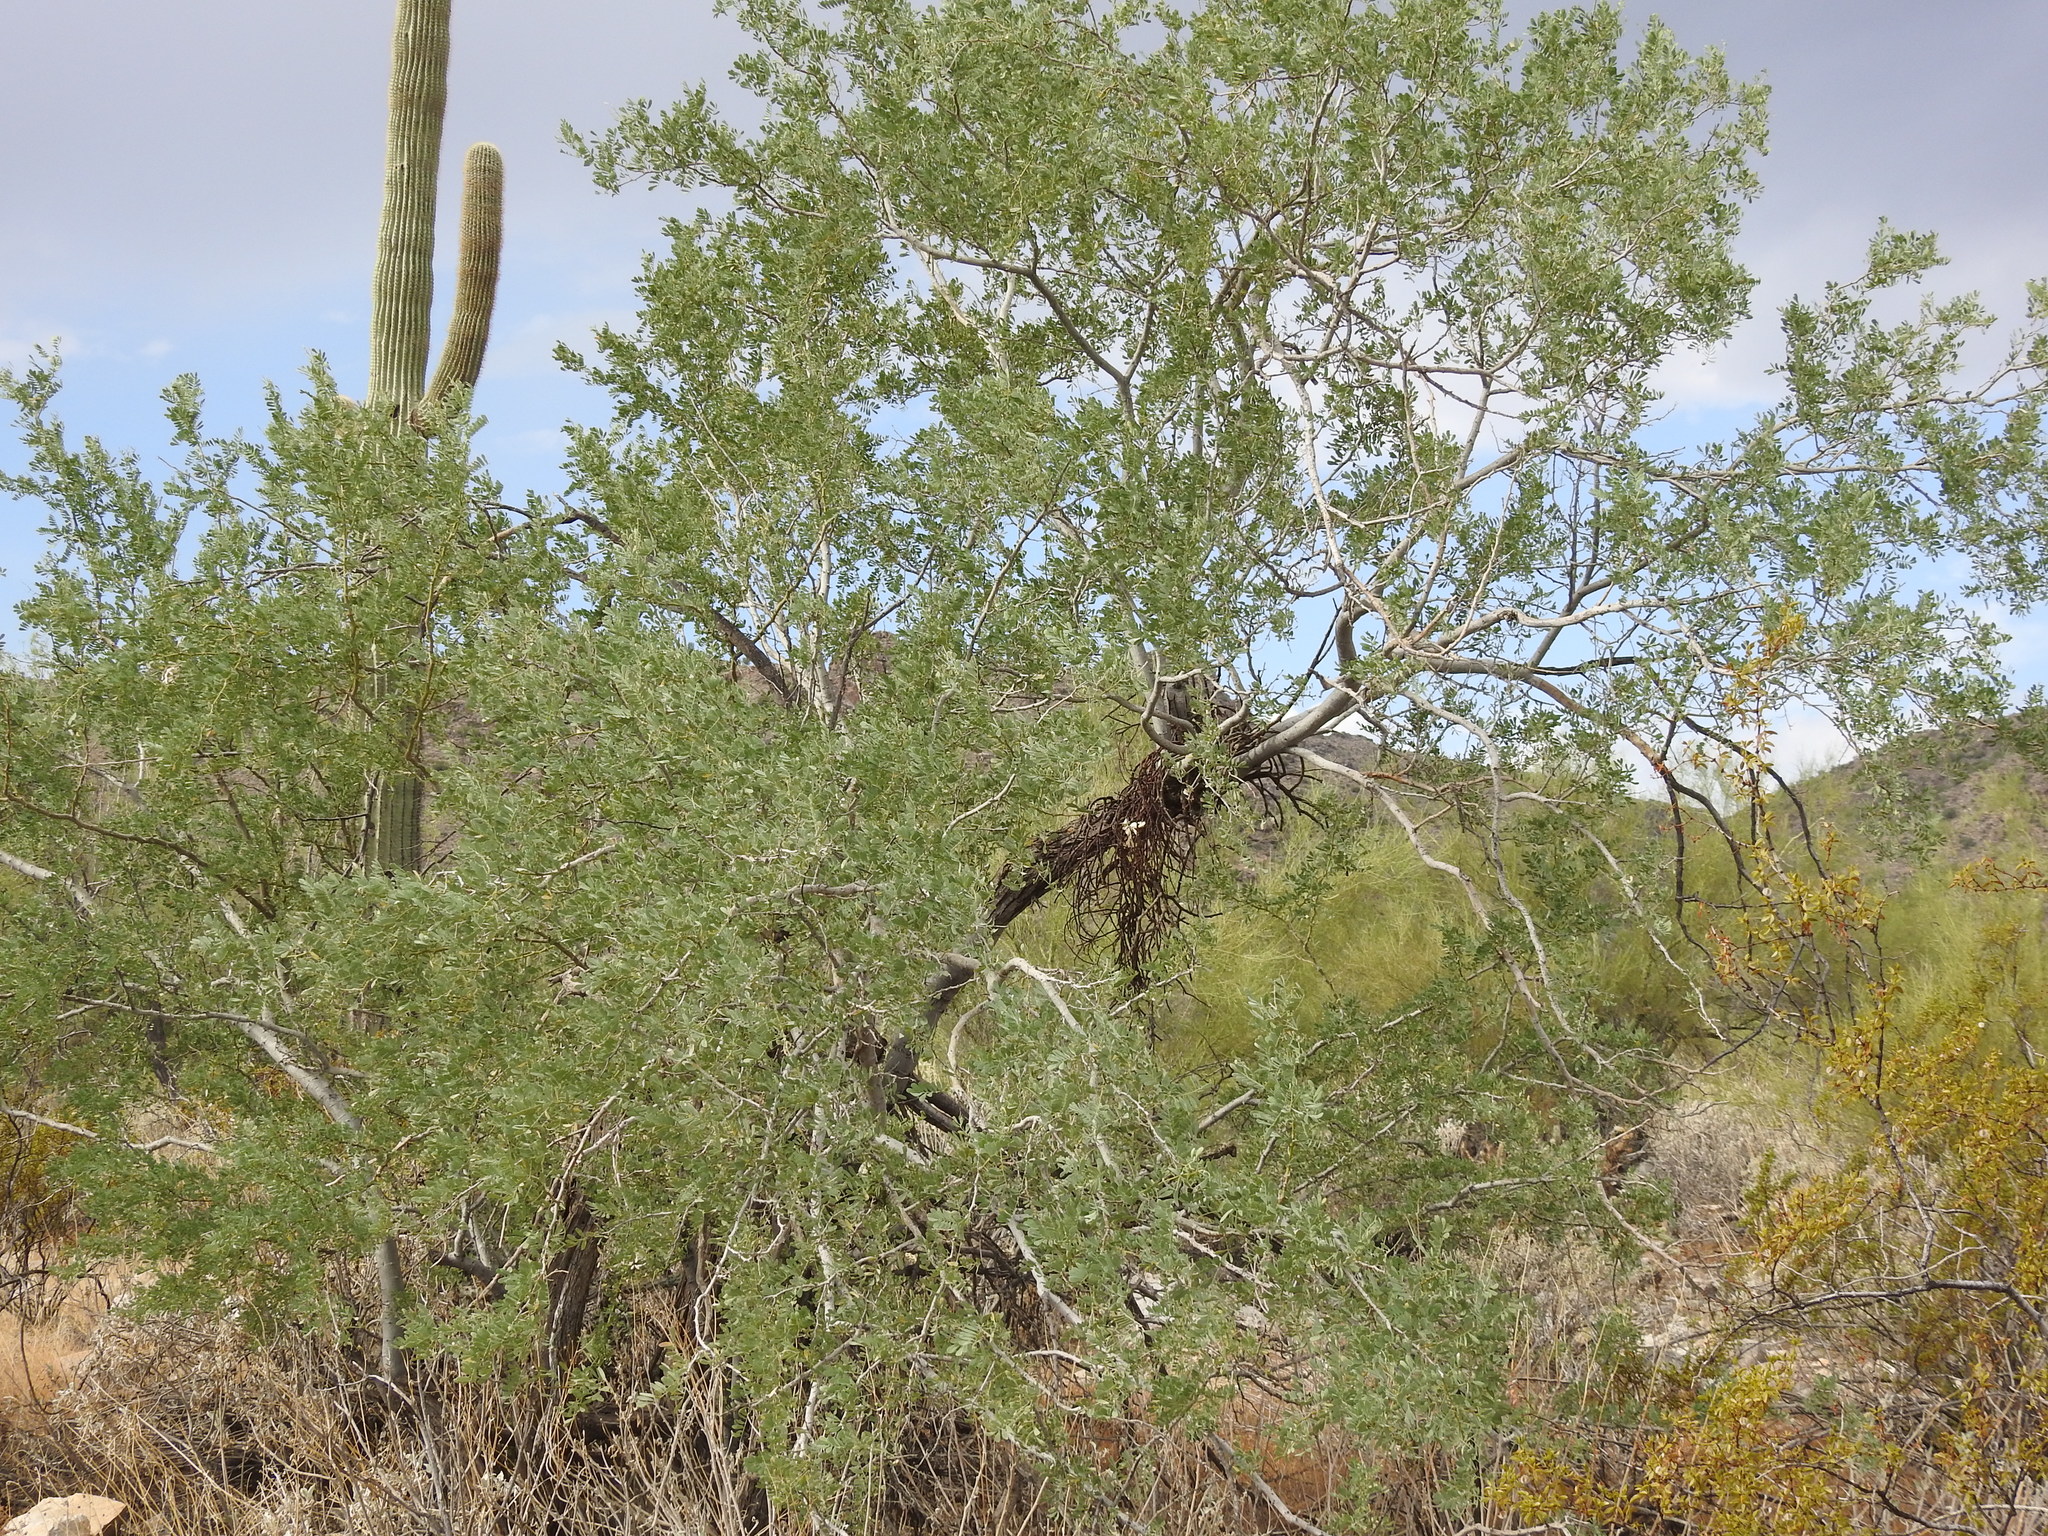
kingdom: Plantae
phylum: Tracheophyta
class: Magnoliopsida
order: Fabales
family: Fabaceae
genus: Olneya
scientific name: Olneya tesota
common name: Desert ironwood
